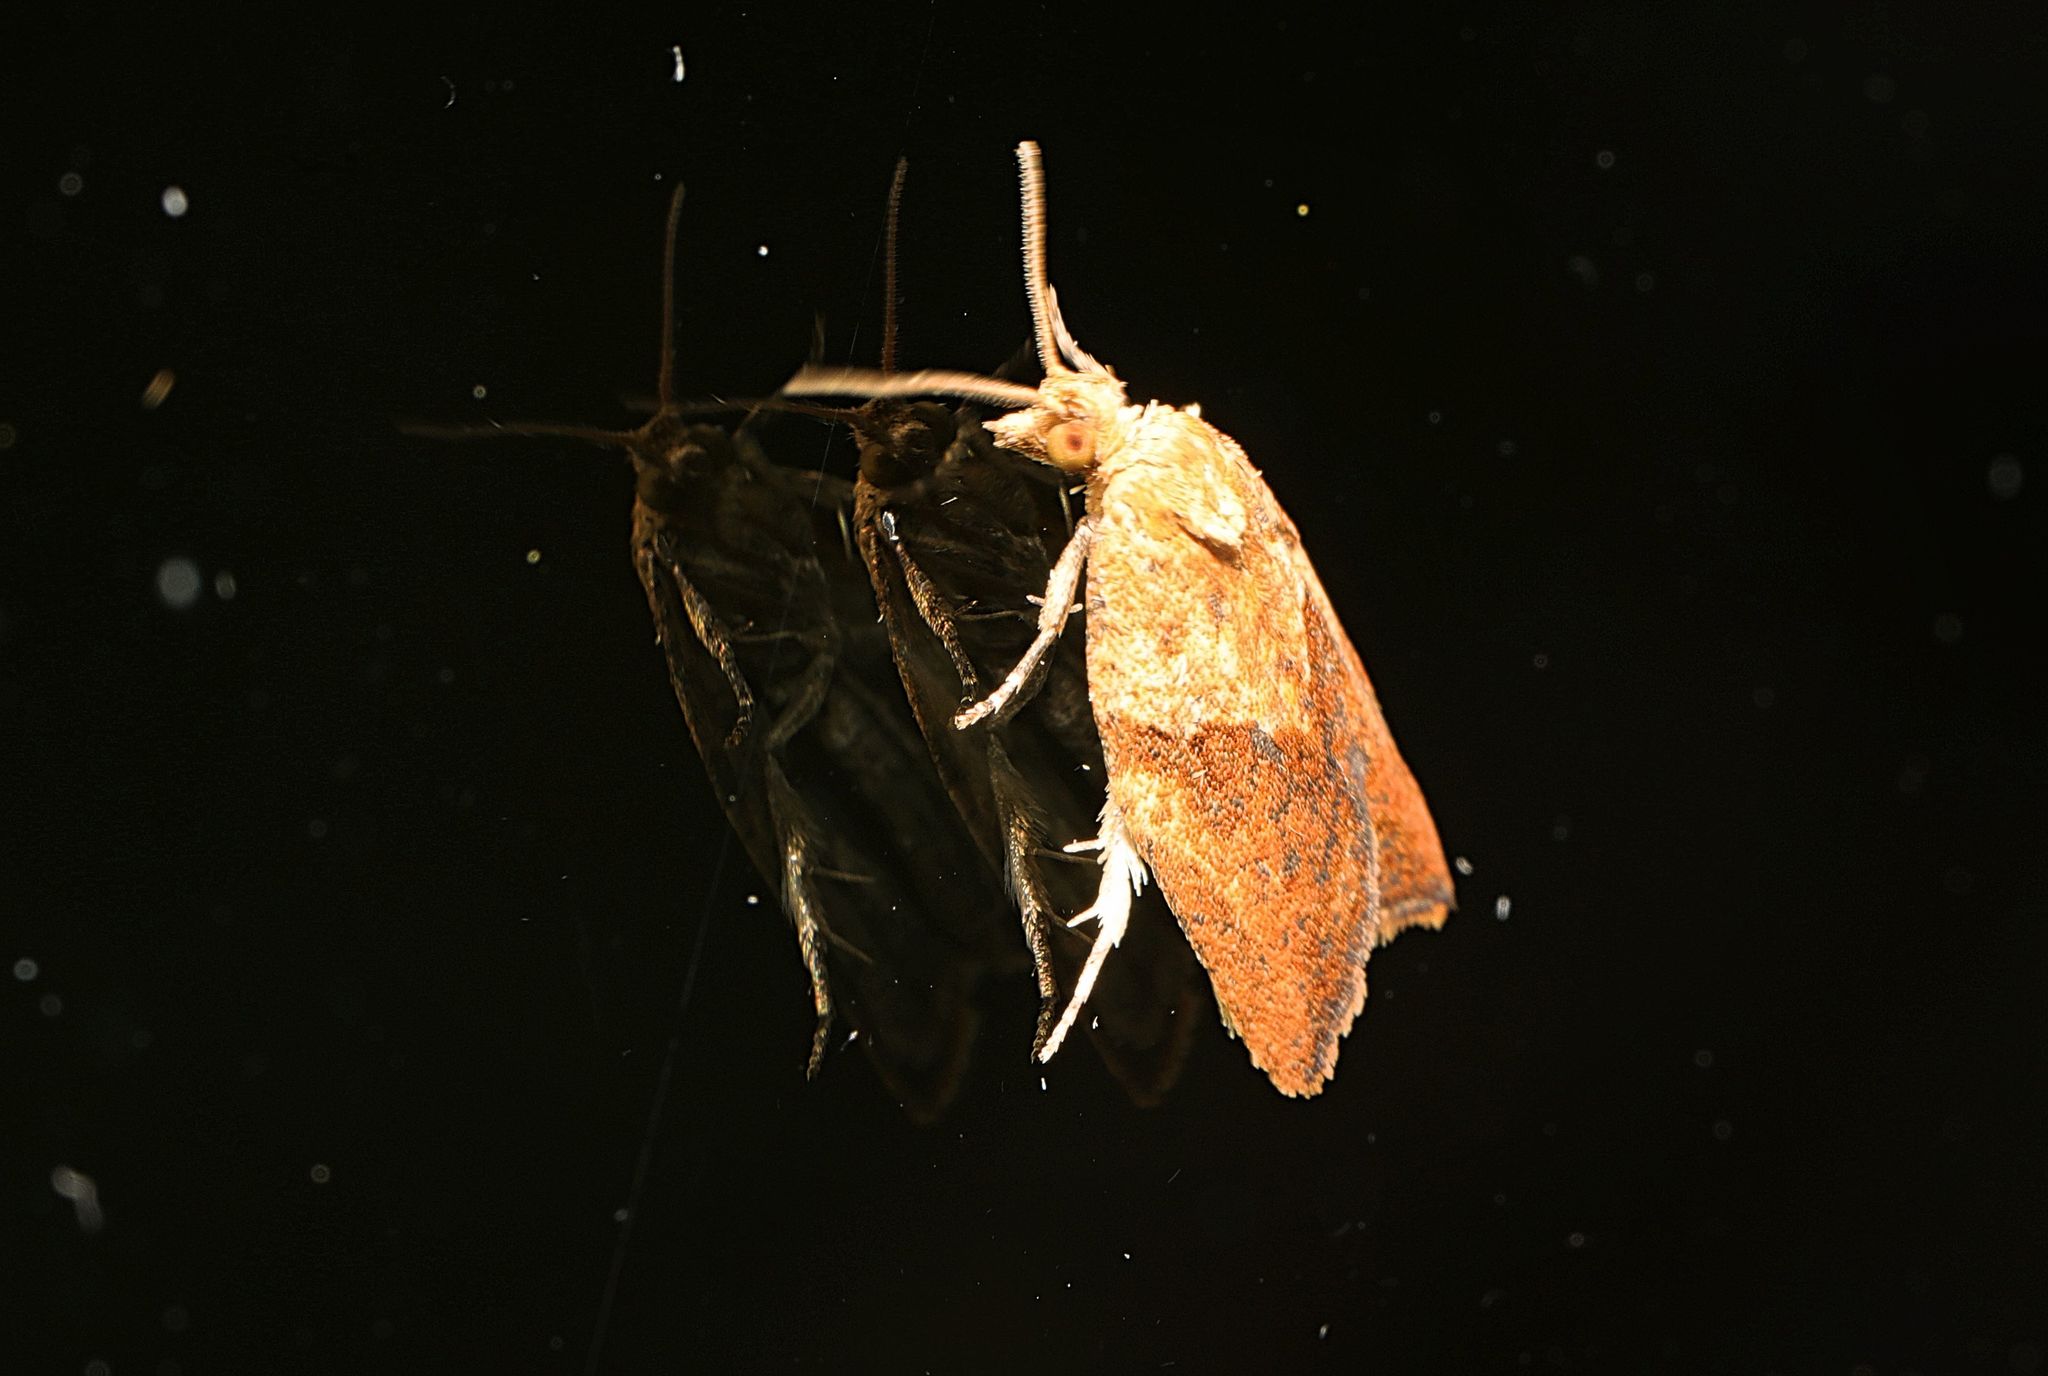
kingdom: Animalia
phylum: Arthropoda
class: Insecta
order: Lepidoptera
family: Tortricidae
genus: Epiphyas
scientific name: Epiphyas postvittana
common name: Light brown apple moth
